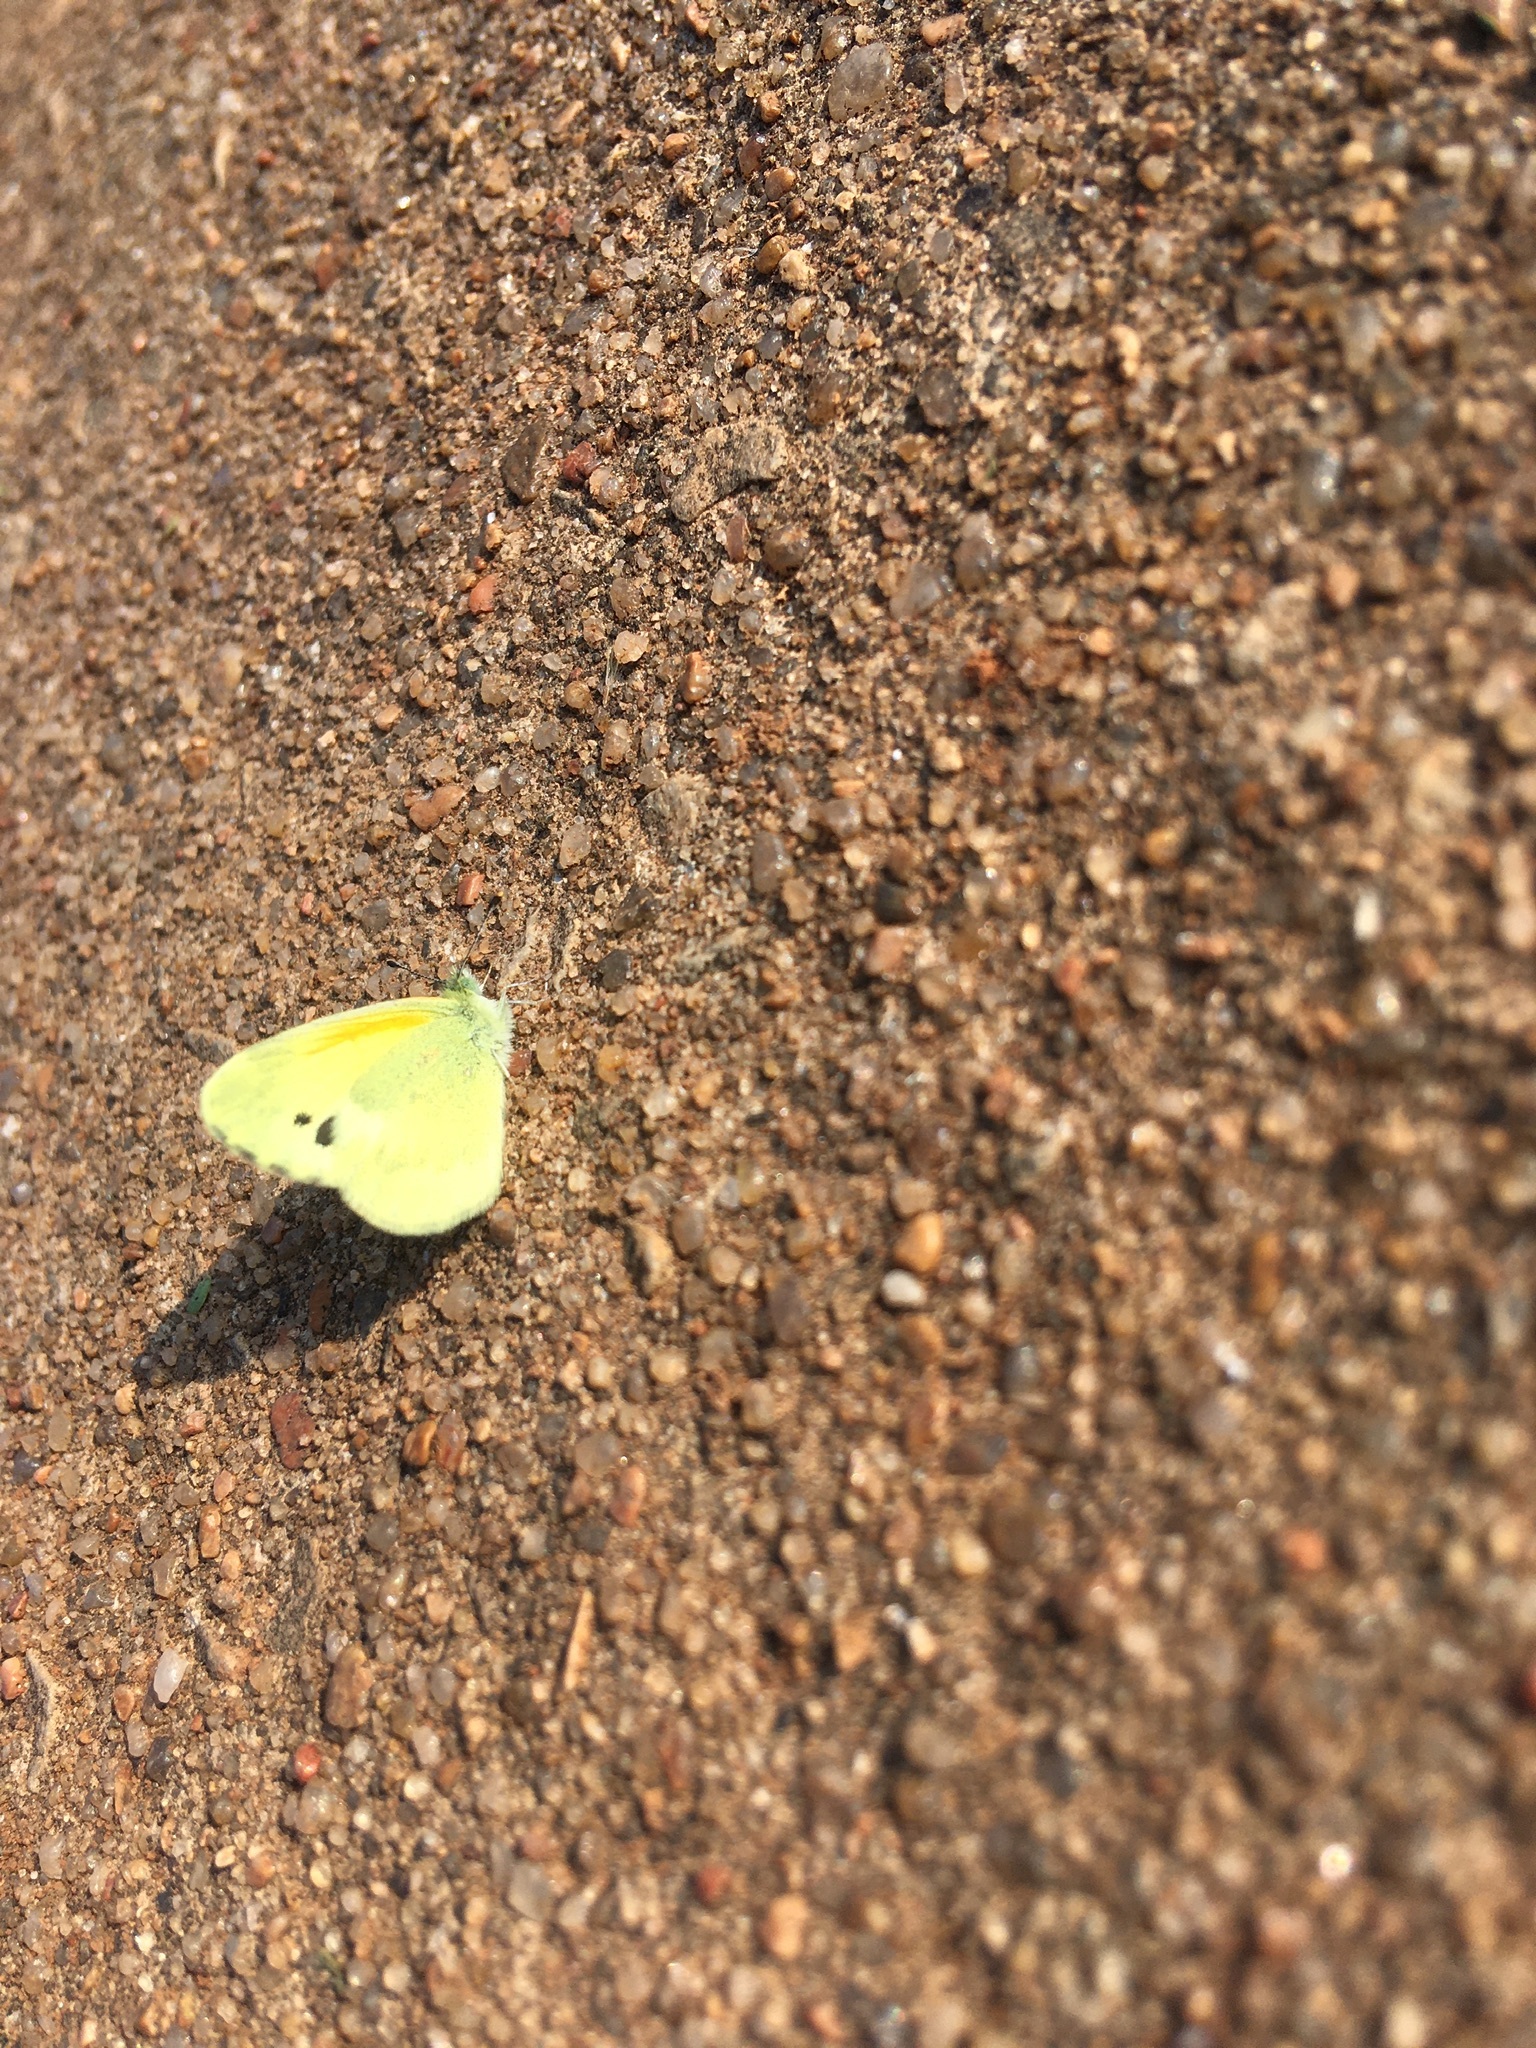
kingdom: Animalia
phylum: Arthropoda
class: Insecta
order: Lepidoptera
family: Pieridae
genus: Nathalis
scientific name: Nathalis iole
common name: Dainty sulphur
